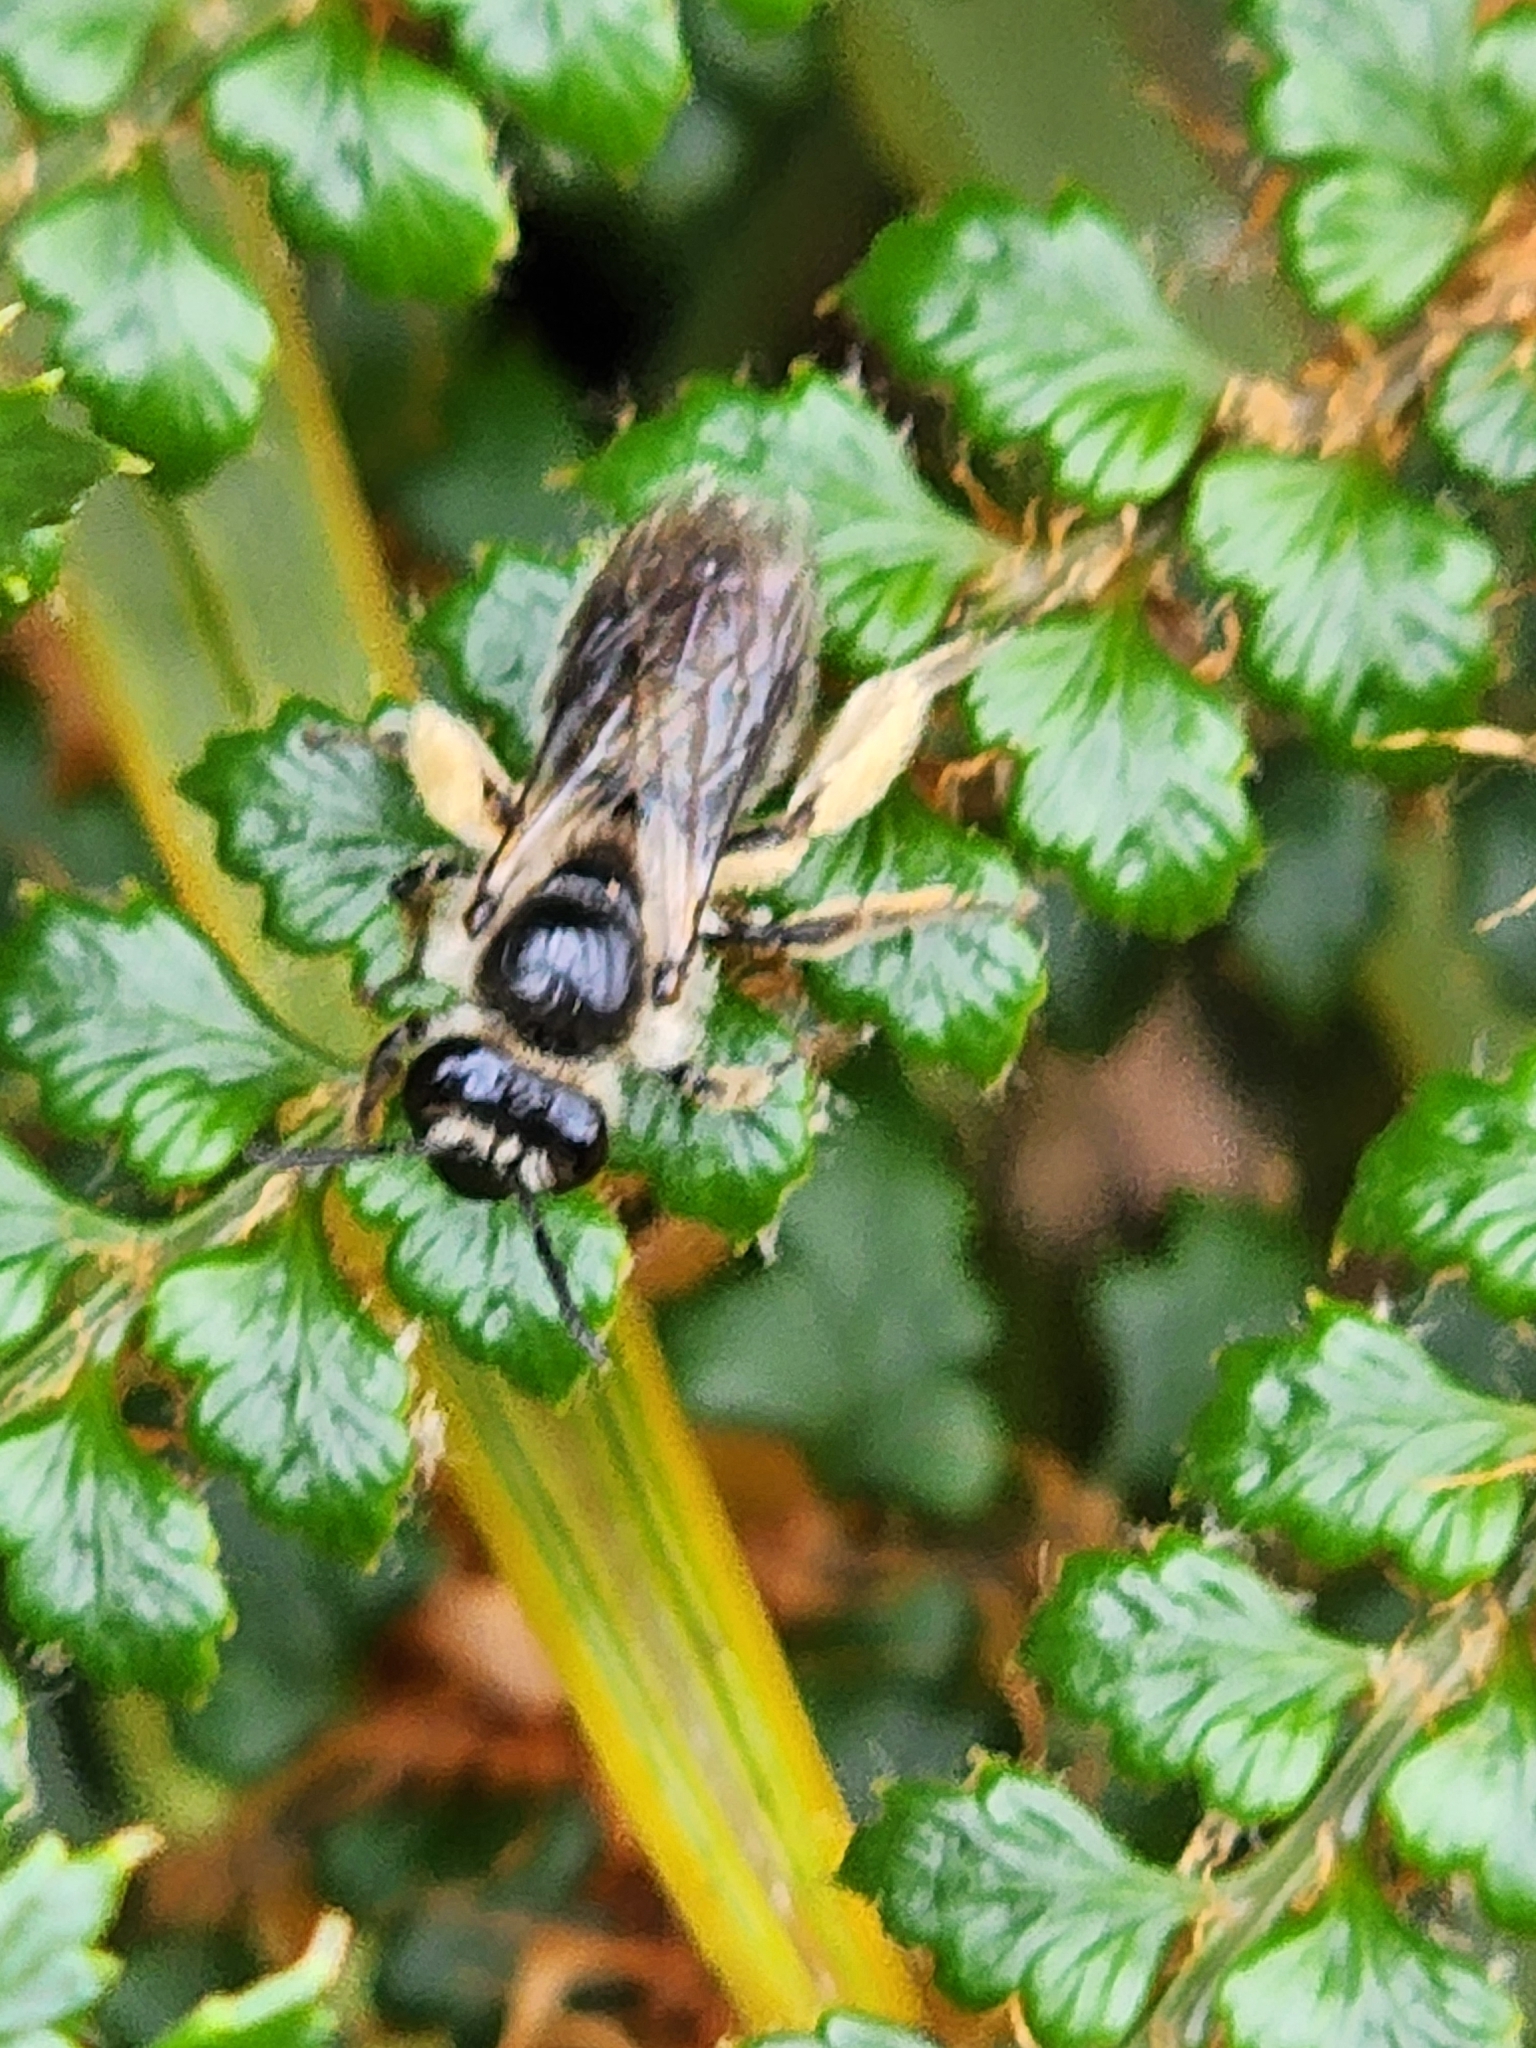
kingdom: Animalia
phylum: Arthropoda
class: Insecta
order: Hymenoptera
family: Colletidae
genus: Leioproctus
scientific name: Leioproctus fulvescens
